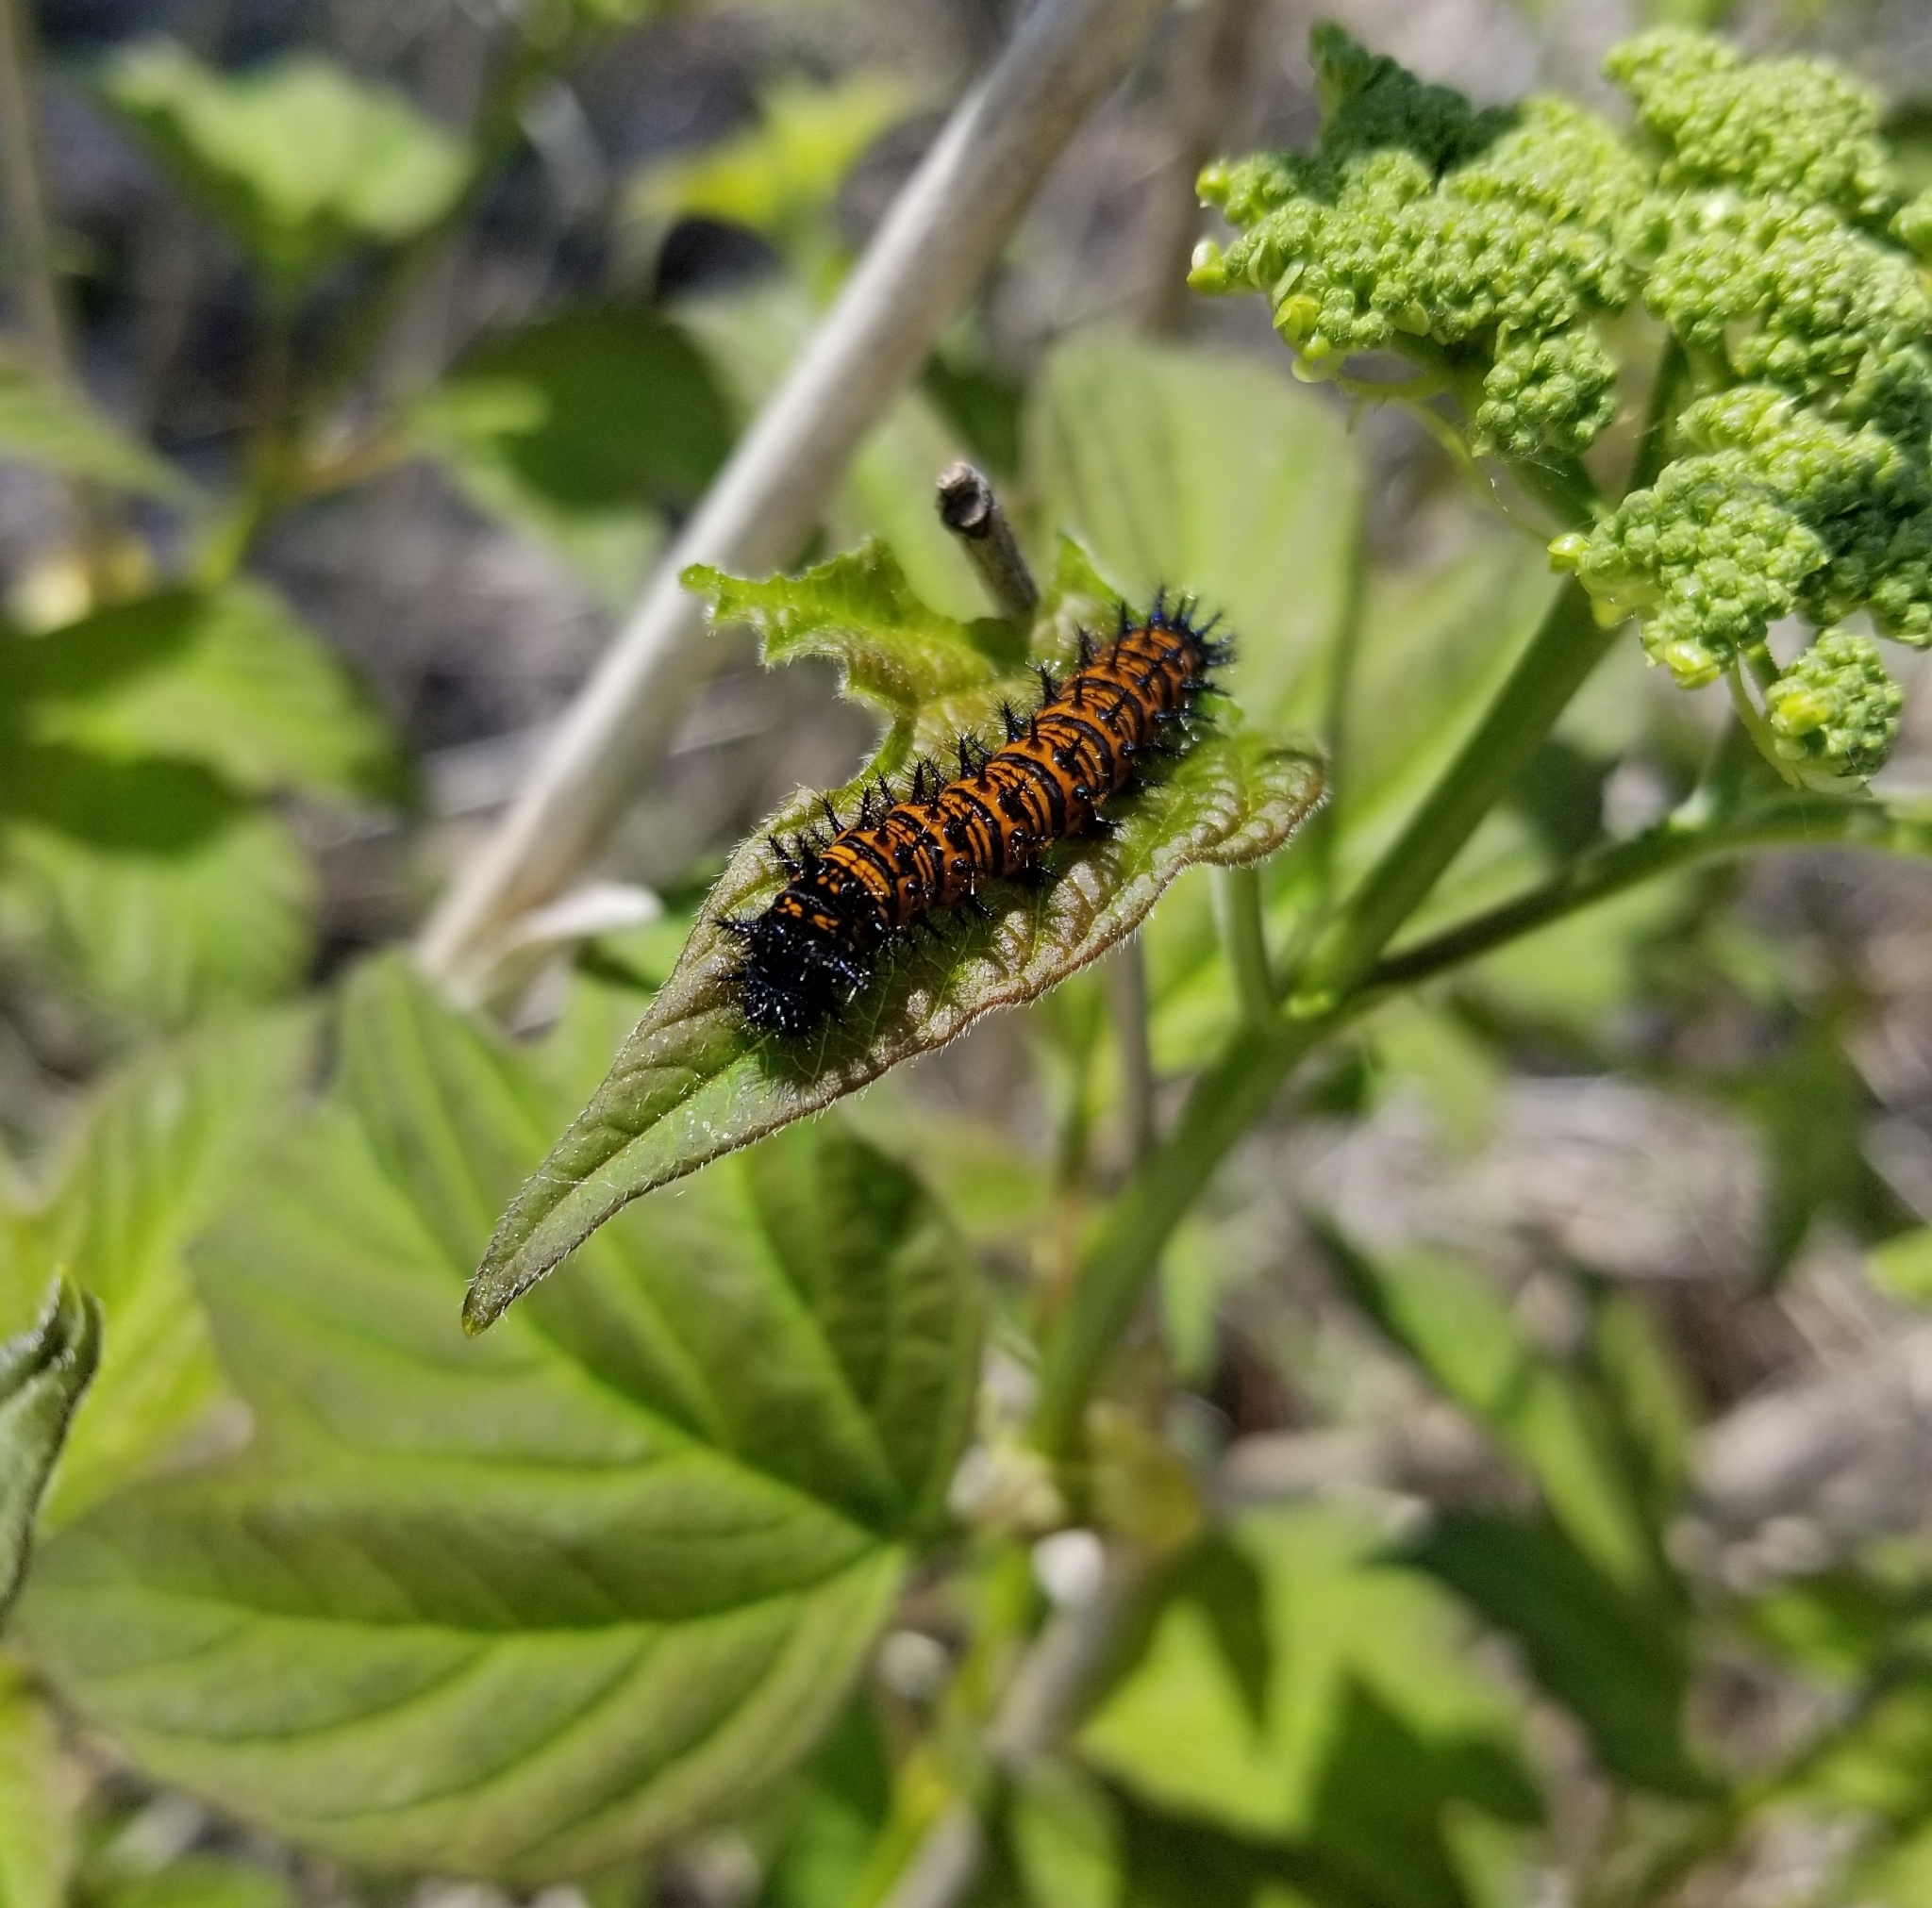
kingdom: Animalia
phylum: Arthropoda
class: Insecta
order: Lepidoptera
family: Nymphalidae
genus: Euphydryas
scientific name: Euphydryas phaeton
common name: Baltimore checkerspot
